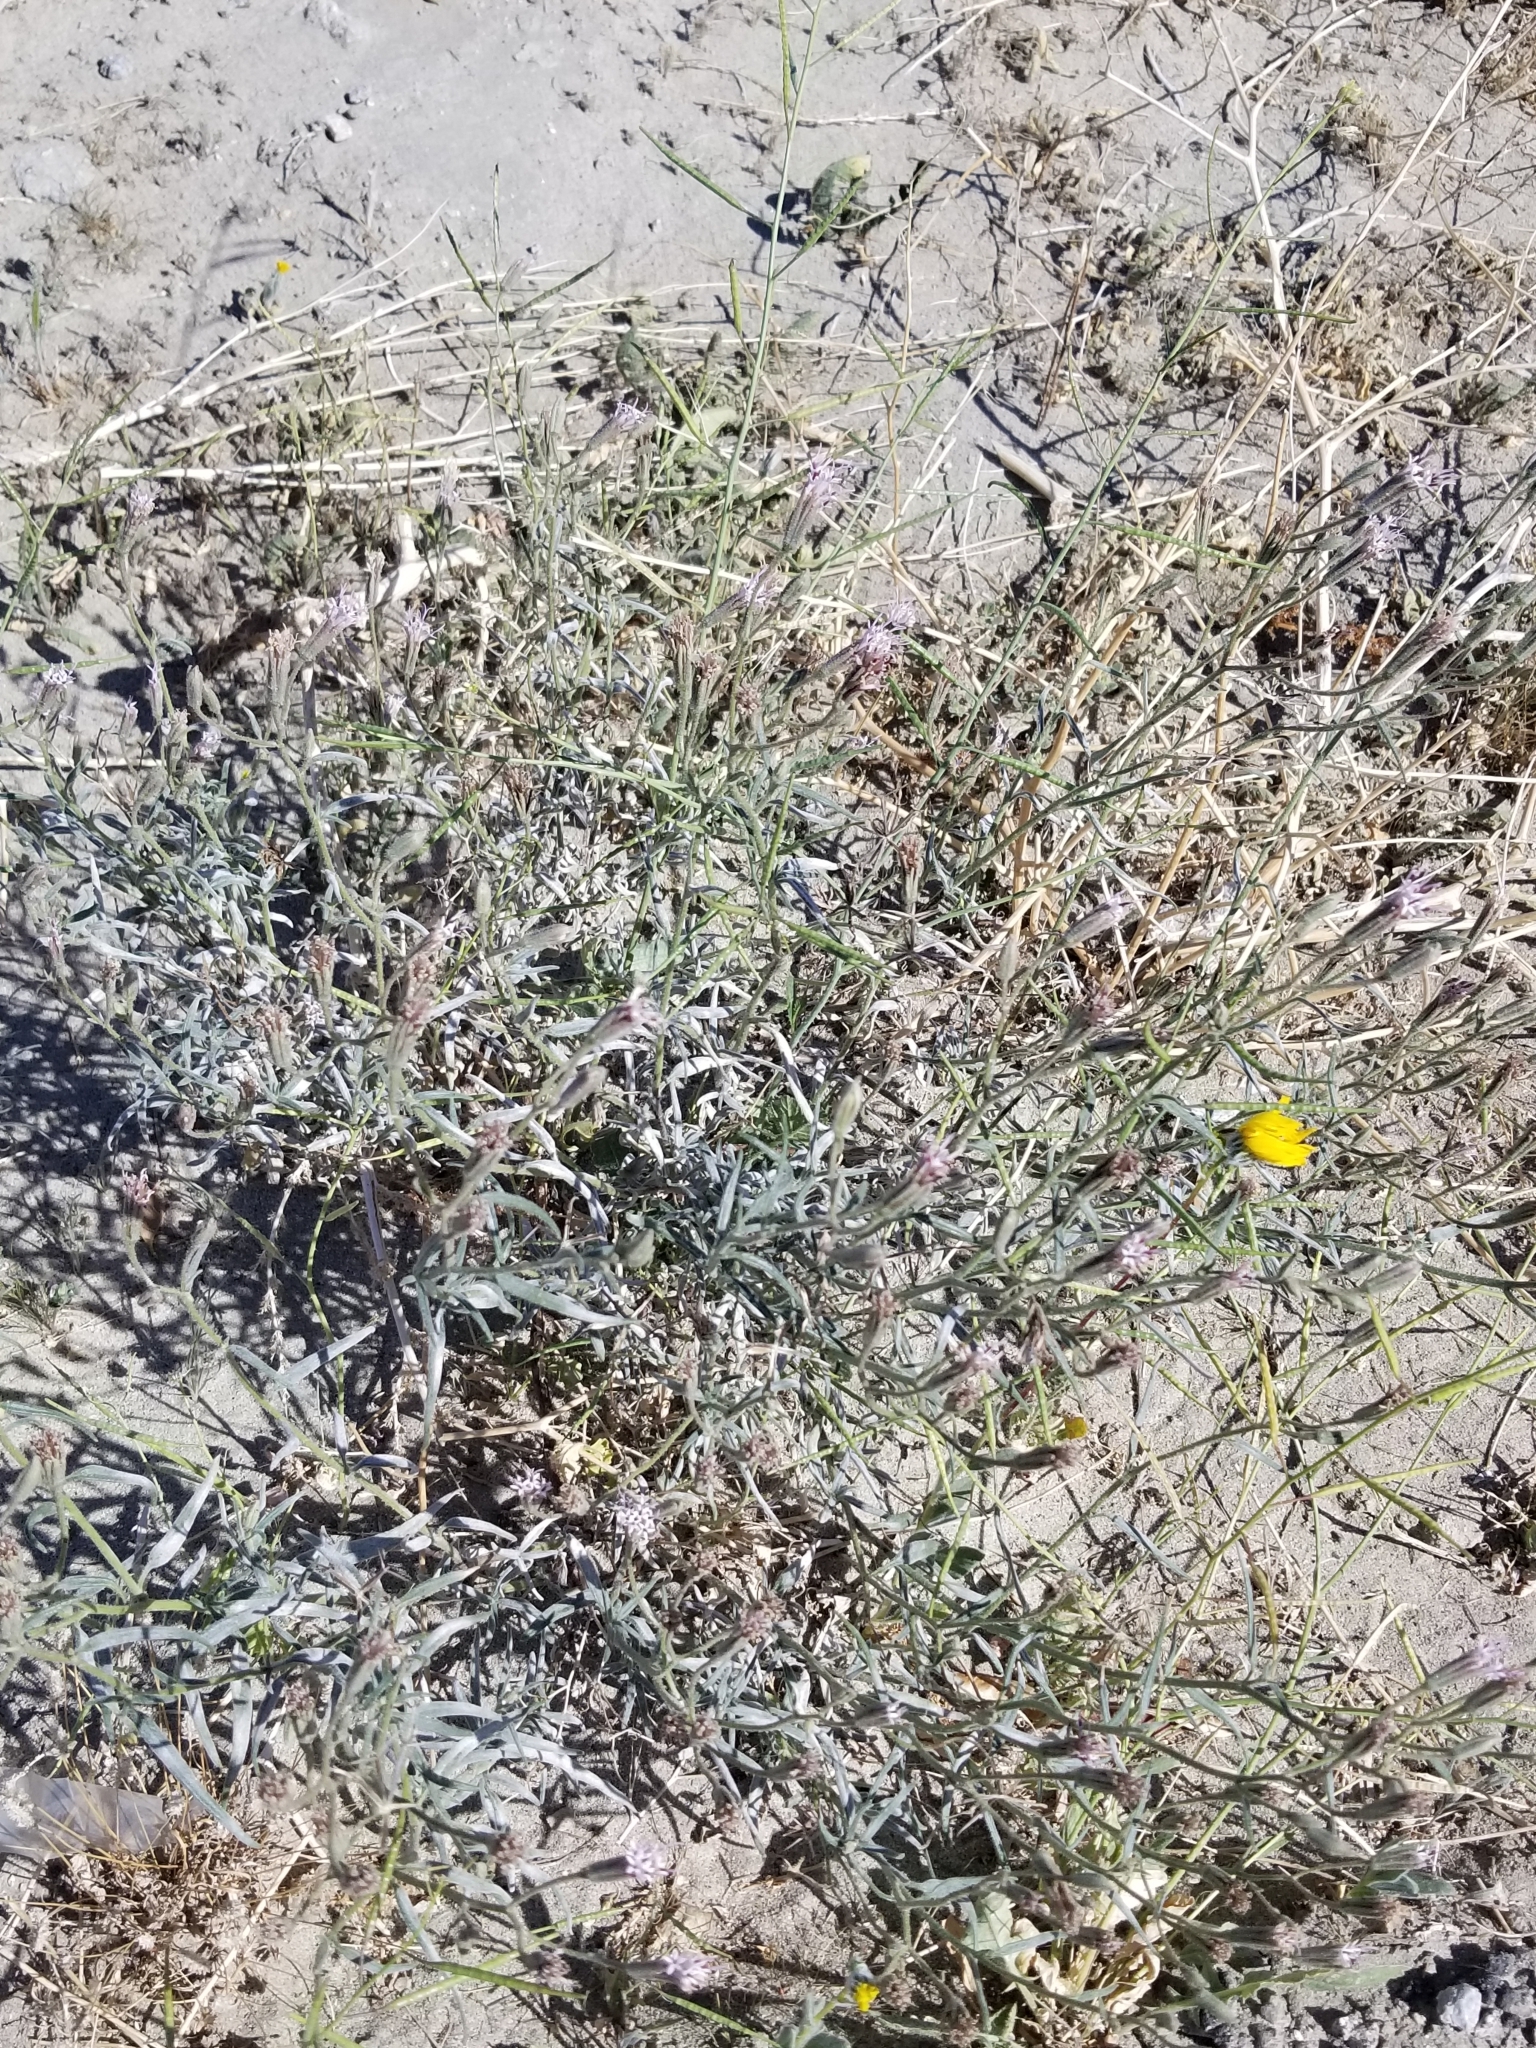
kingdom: Plantae
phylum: Tracheophyta
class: Magnoliopsida
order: Asterales
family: Asteraceae
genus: Palafoxia
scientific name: Palafoxia arida
